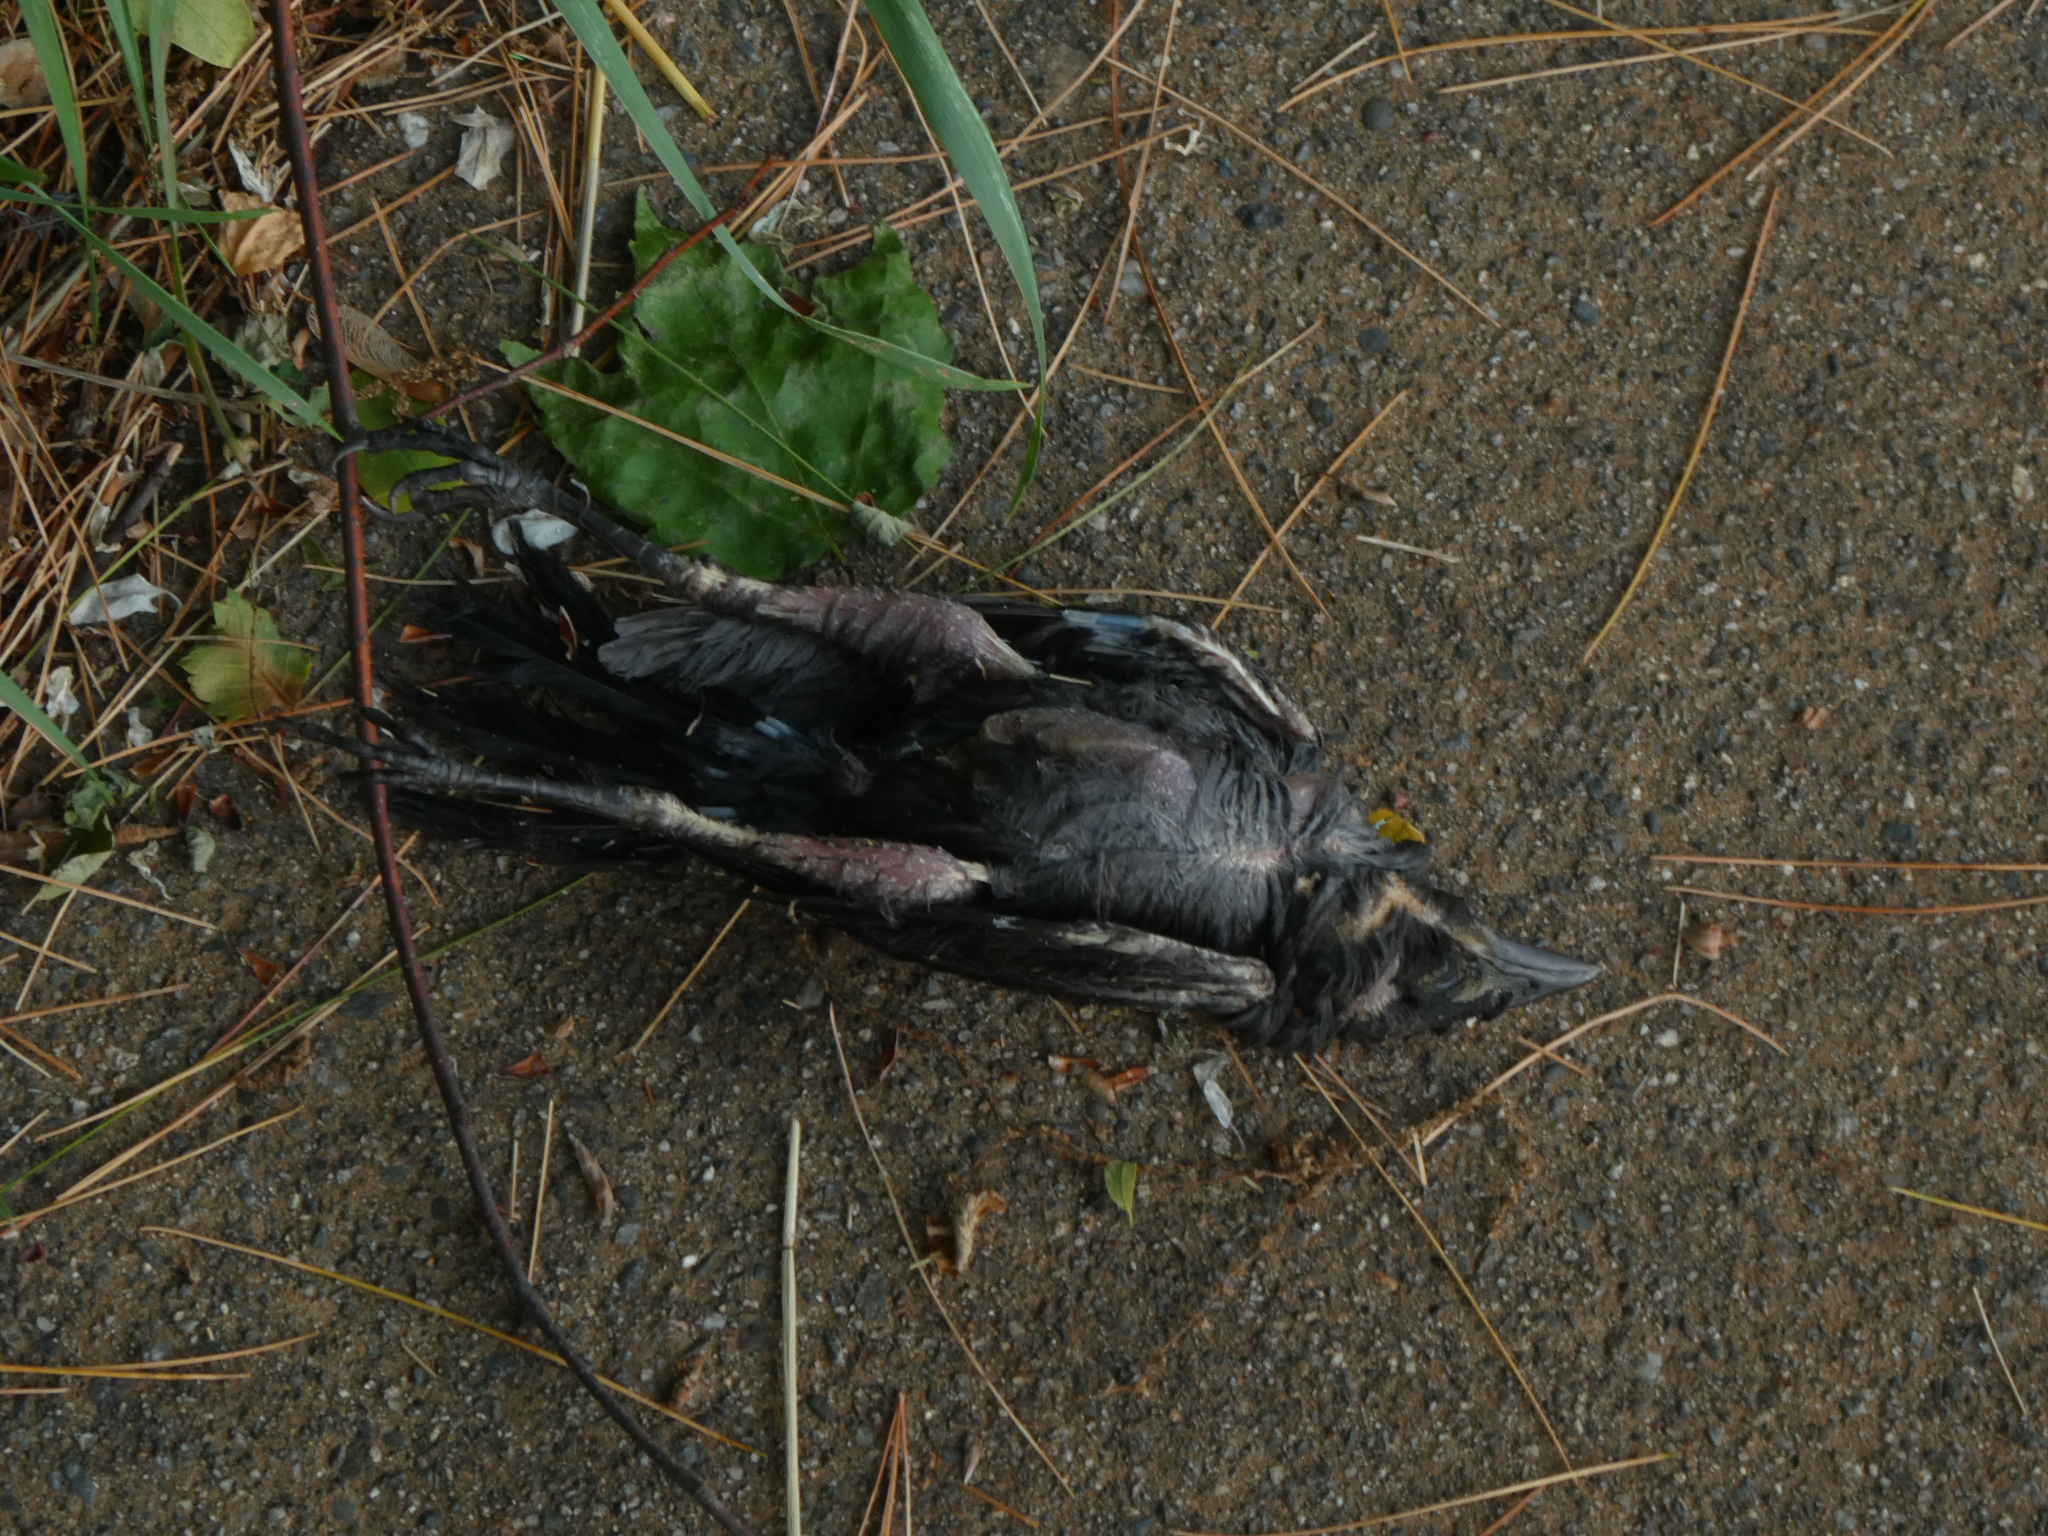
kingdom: Animalia
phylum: Chordata
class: Aves
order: Passeriformes
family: Icteridae
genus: Quiscalus
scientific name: Quiscalus quiscula
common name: Common grackle
